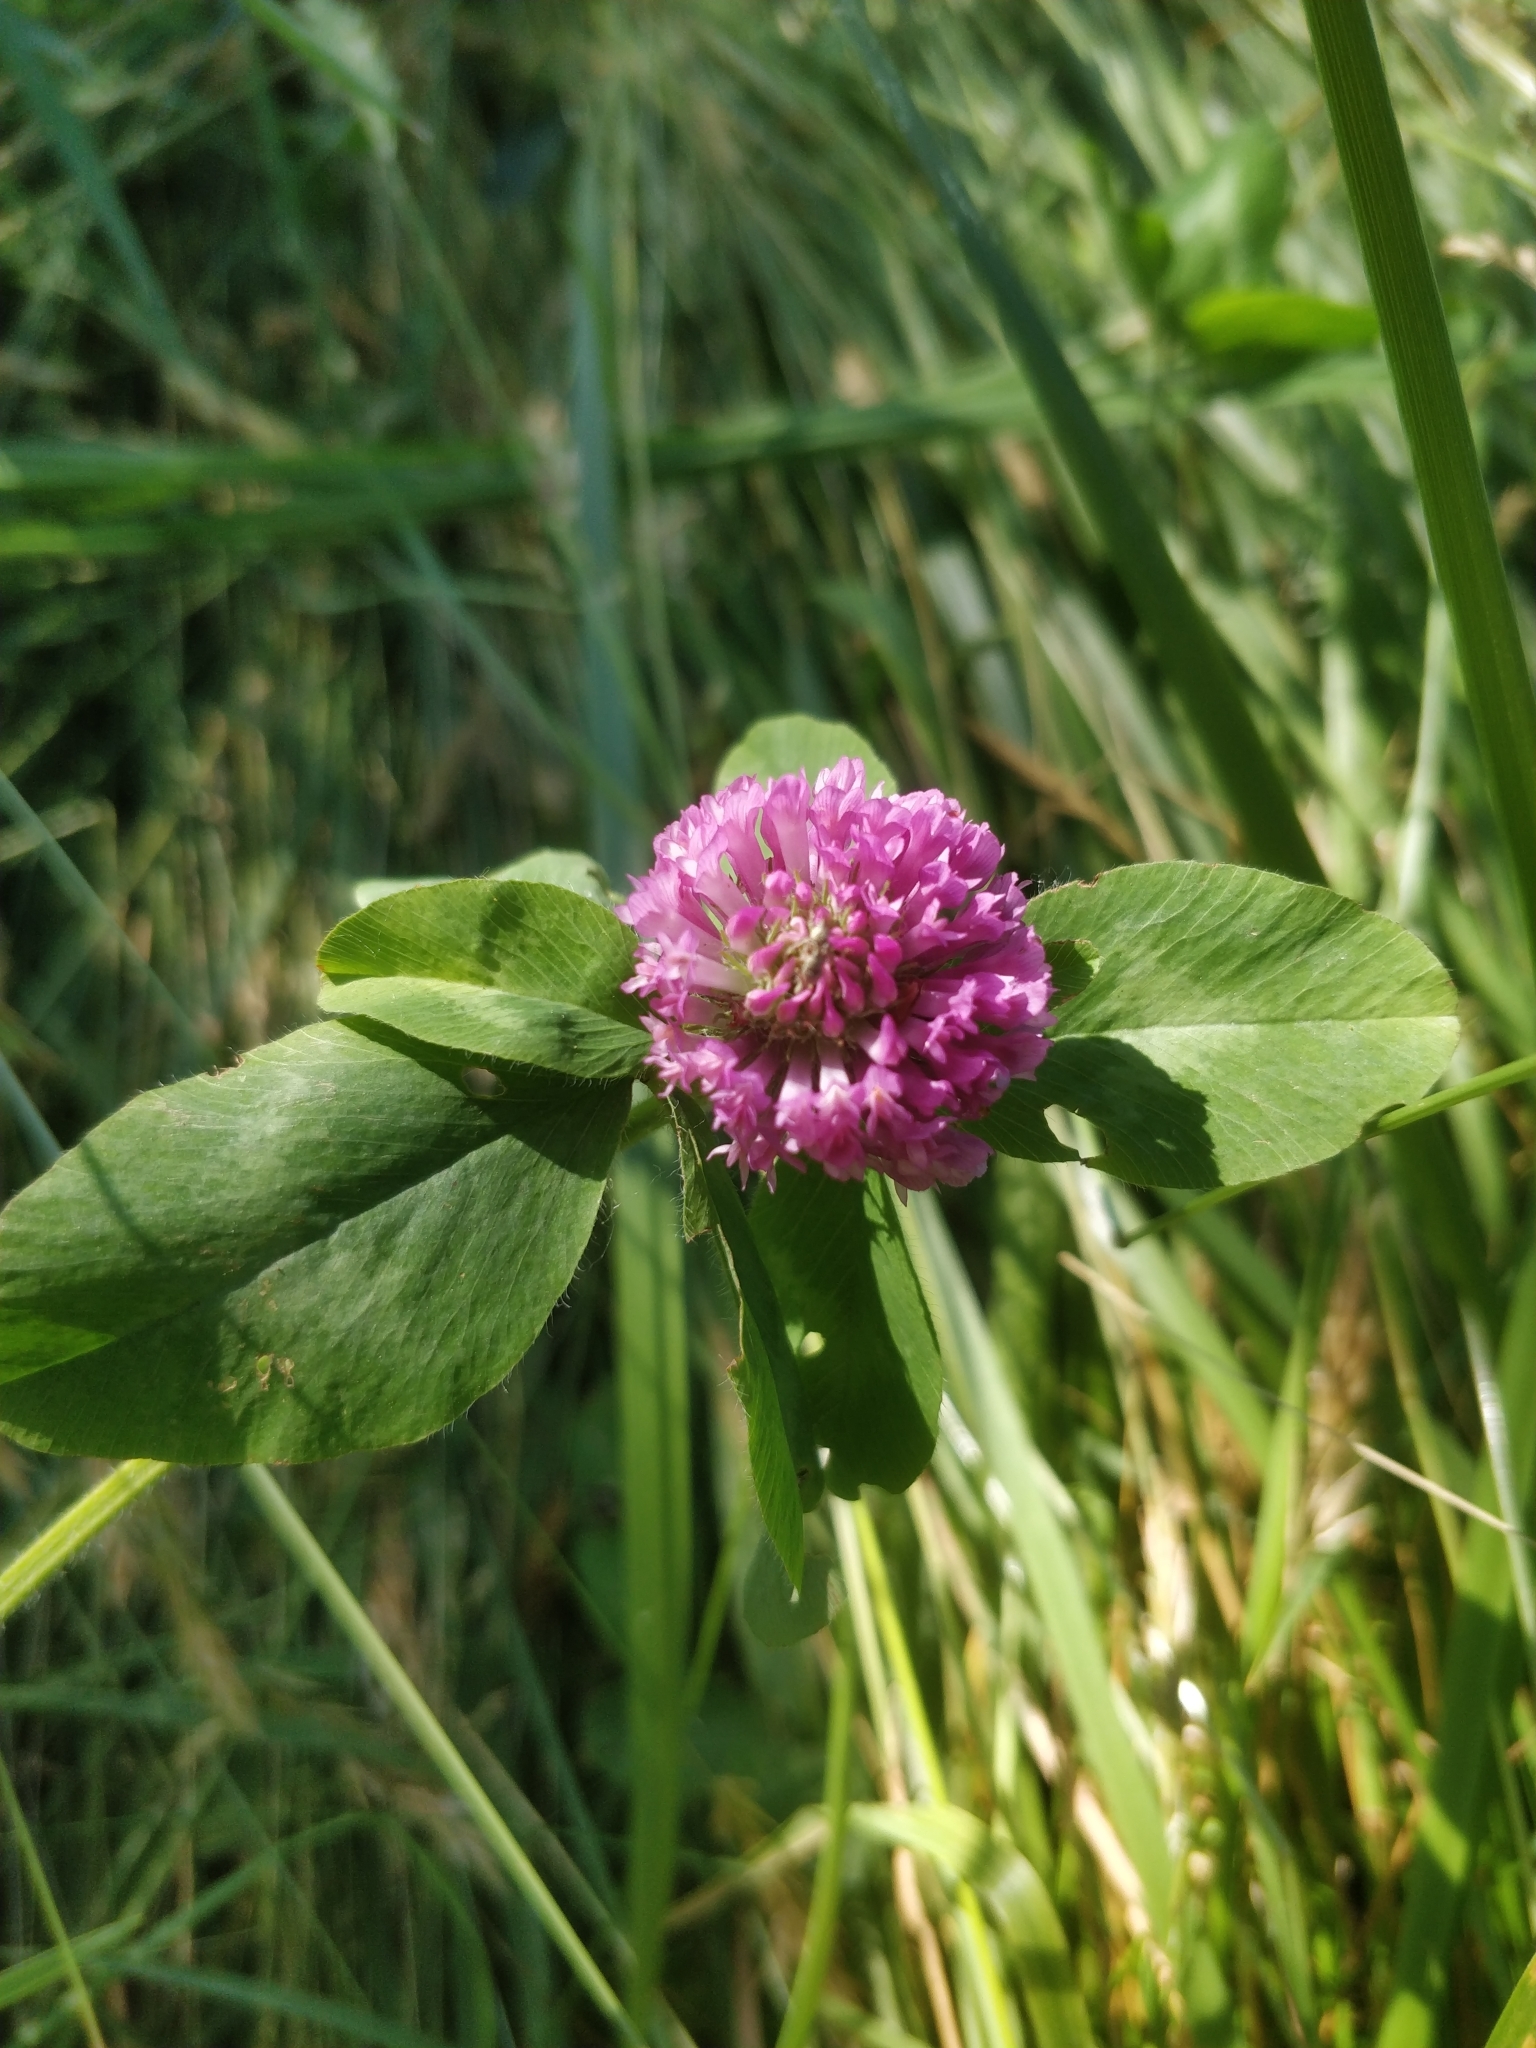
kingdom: Plantae
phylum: Tracheophyta
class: Magnoliopsida
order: Fabales
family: Fabaceae
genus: Trifolium
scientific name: Trifolium pratense
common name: Red clover
